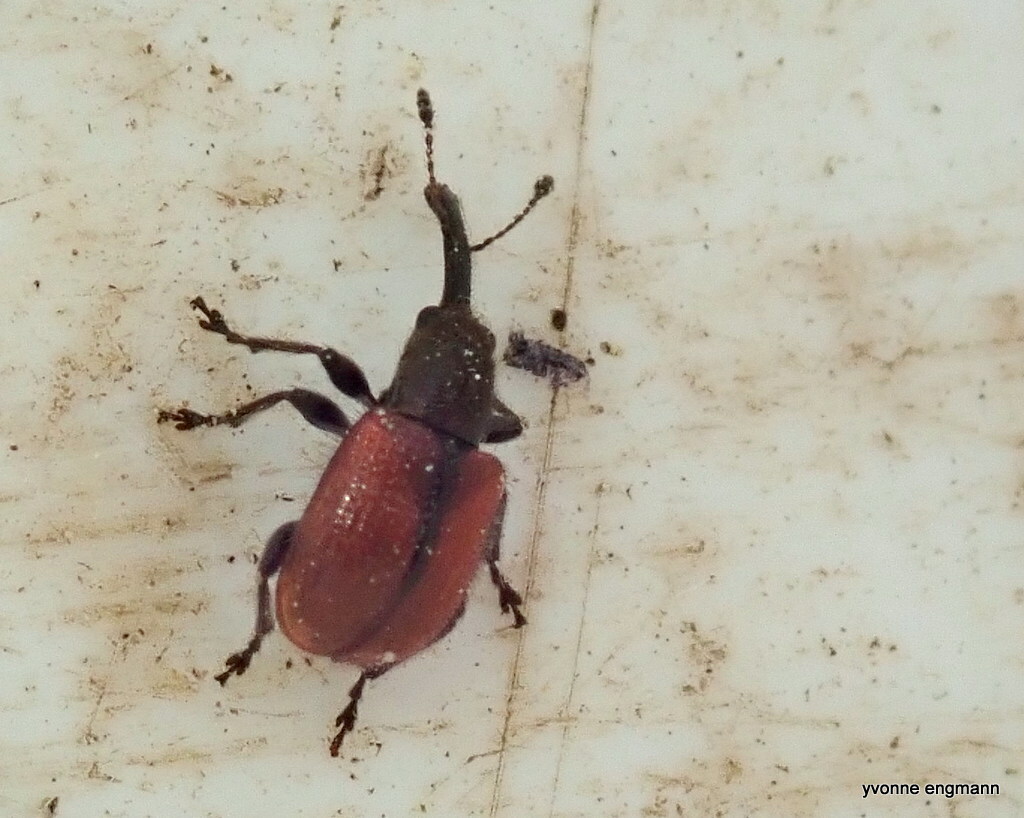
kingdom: Animalia
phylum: Arthropoda
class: Insecta
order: Coleoptera
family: Rhynchitidae
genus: Tatianaerhynchites
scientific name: Tatianaerhynchites aequatus
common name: Apple fruit rhynchites
